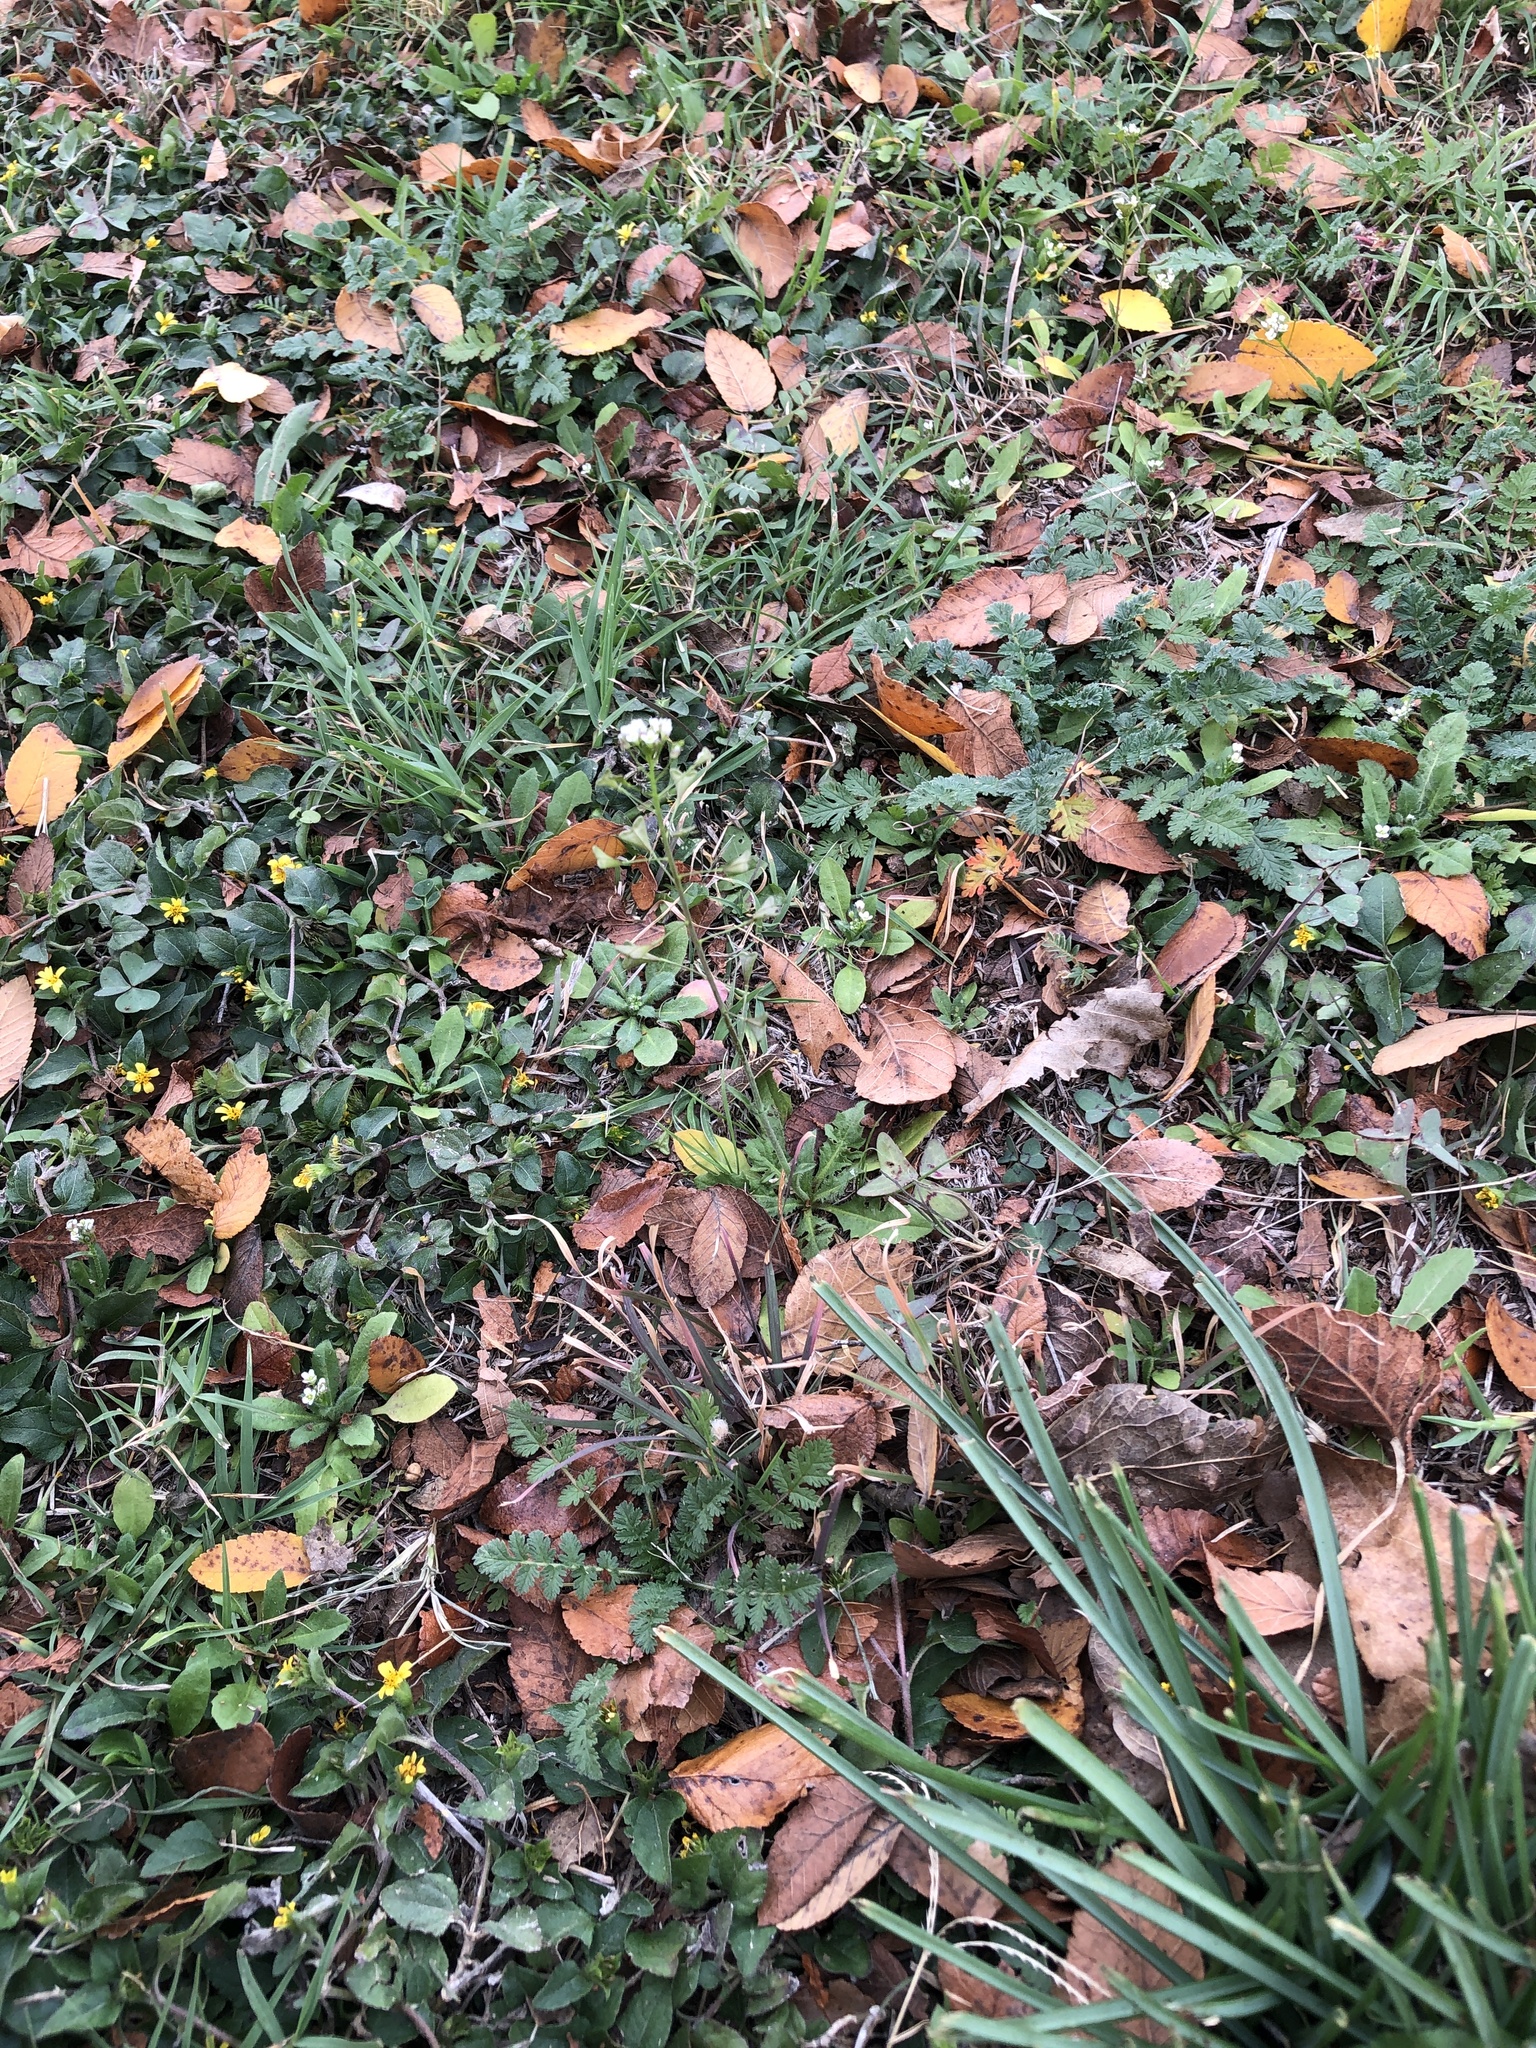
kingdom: Plantae
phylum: Tracheophyta
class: Magnoliopsida
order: Brassicales
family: Brassicaceae
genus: Capsella
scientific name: Capsella bursa-pastoris
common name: Shepherd's purse
